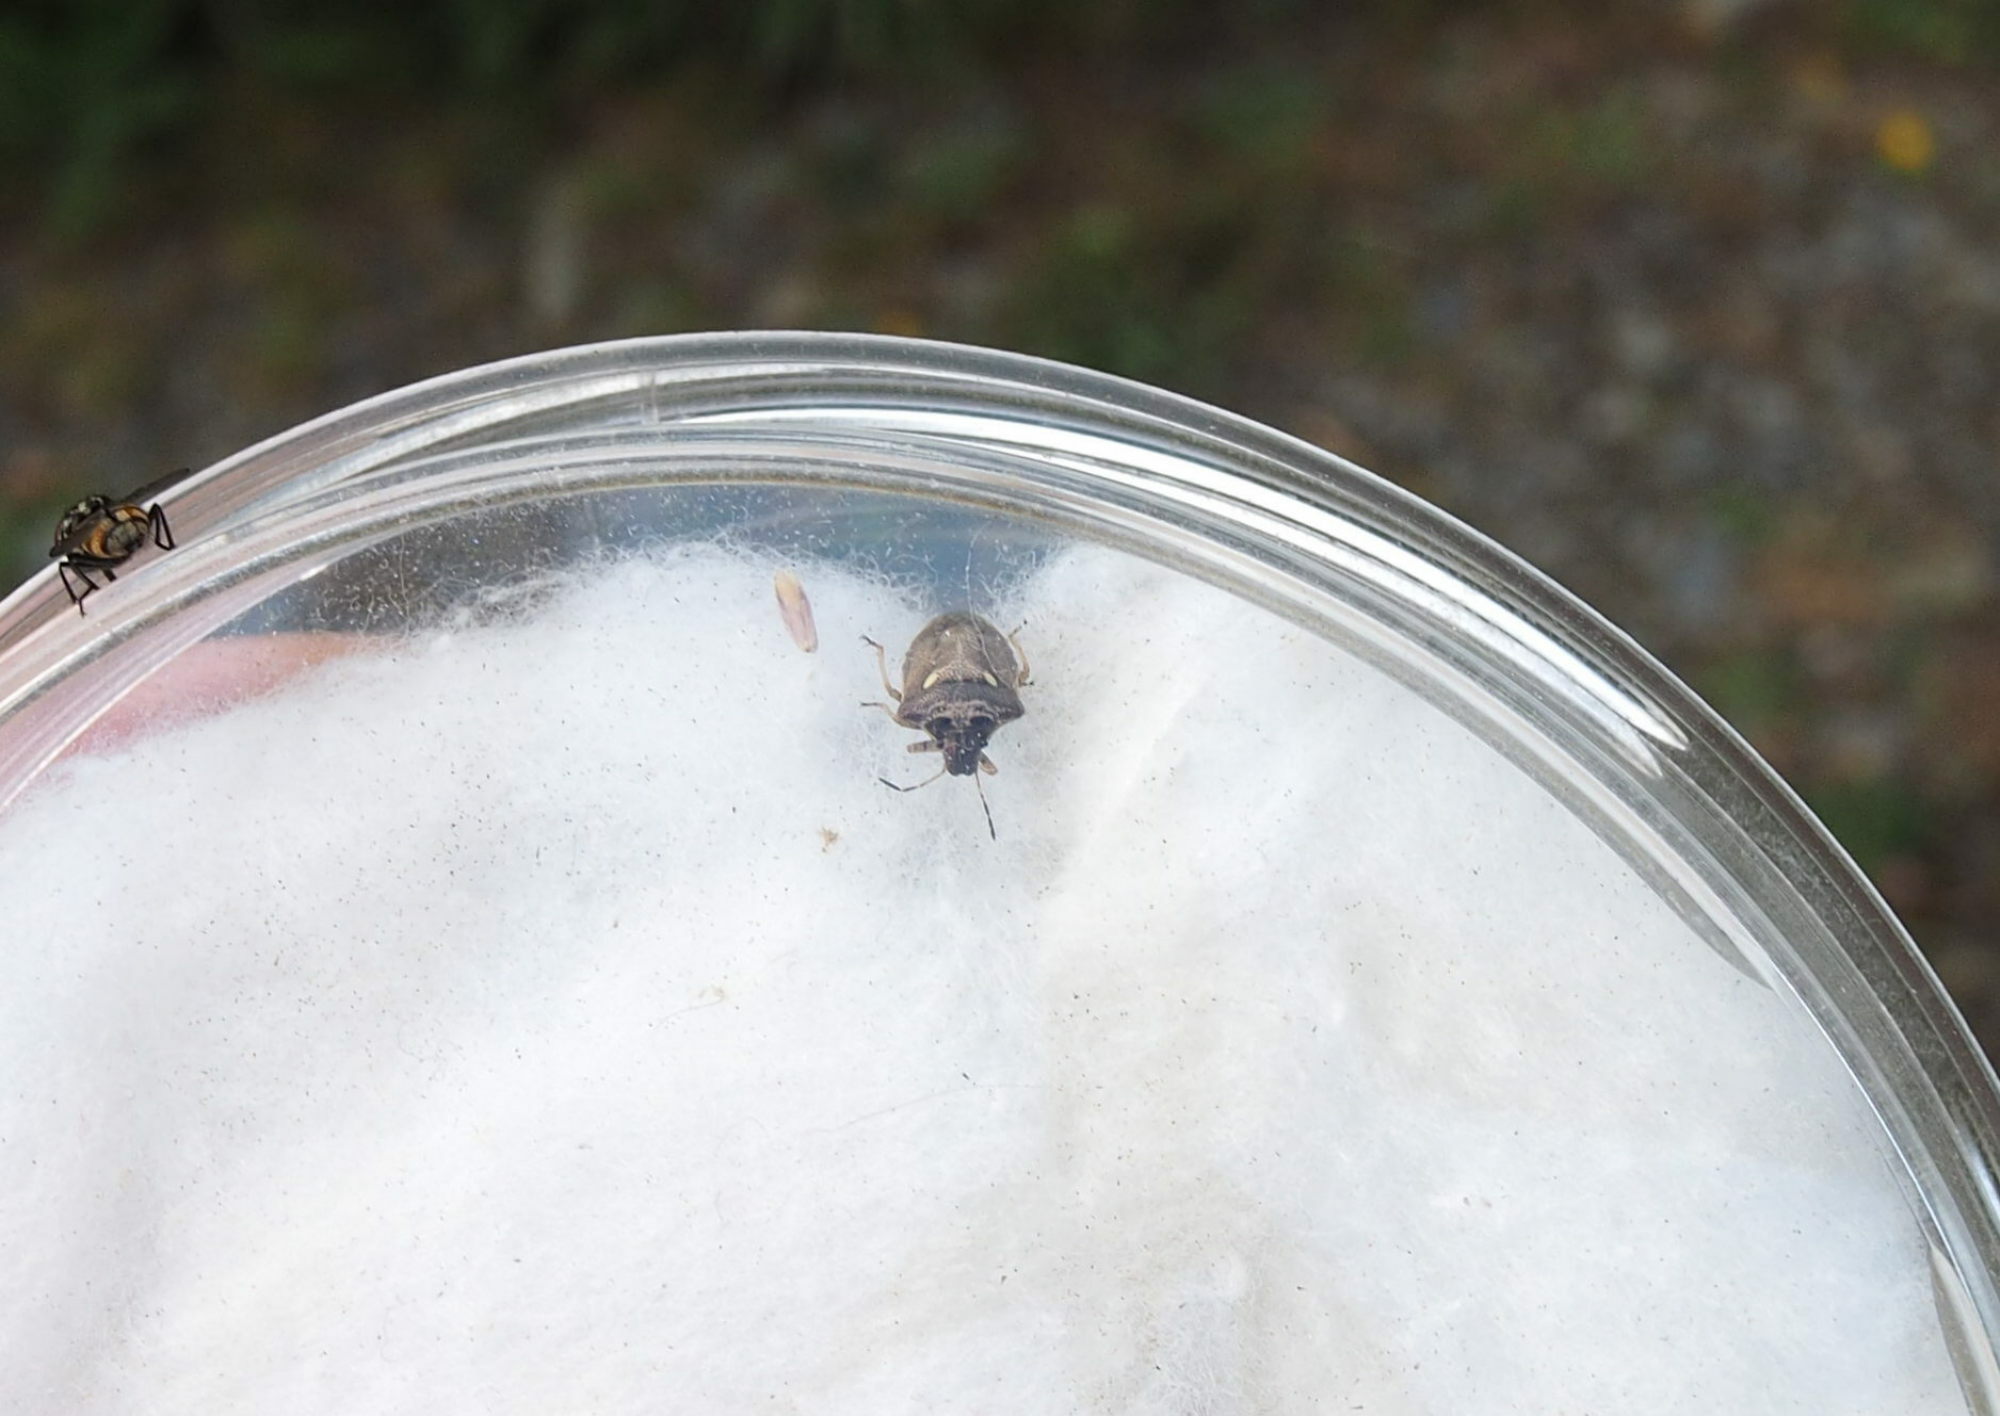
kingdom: Animalia
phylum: Arthropoda
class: Insecta
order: Hemiptera
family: Pentatomidae
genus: Eysarcoris
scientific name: Eysarcoris aeneus
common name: New forest shieldbug
